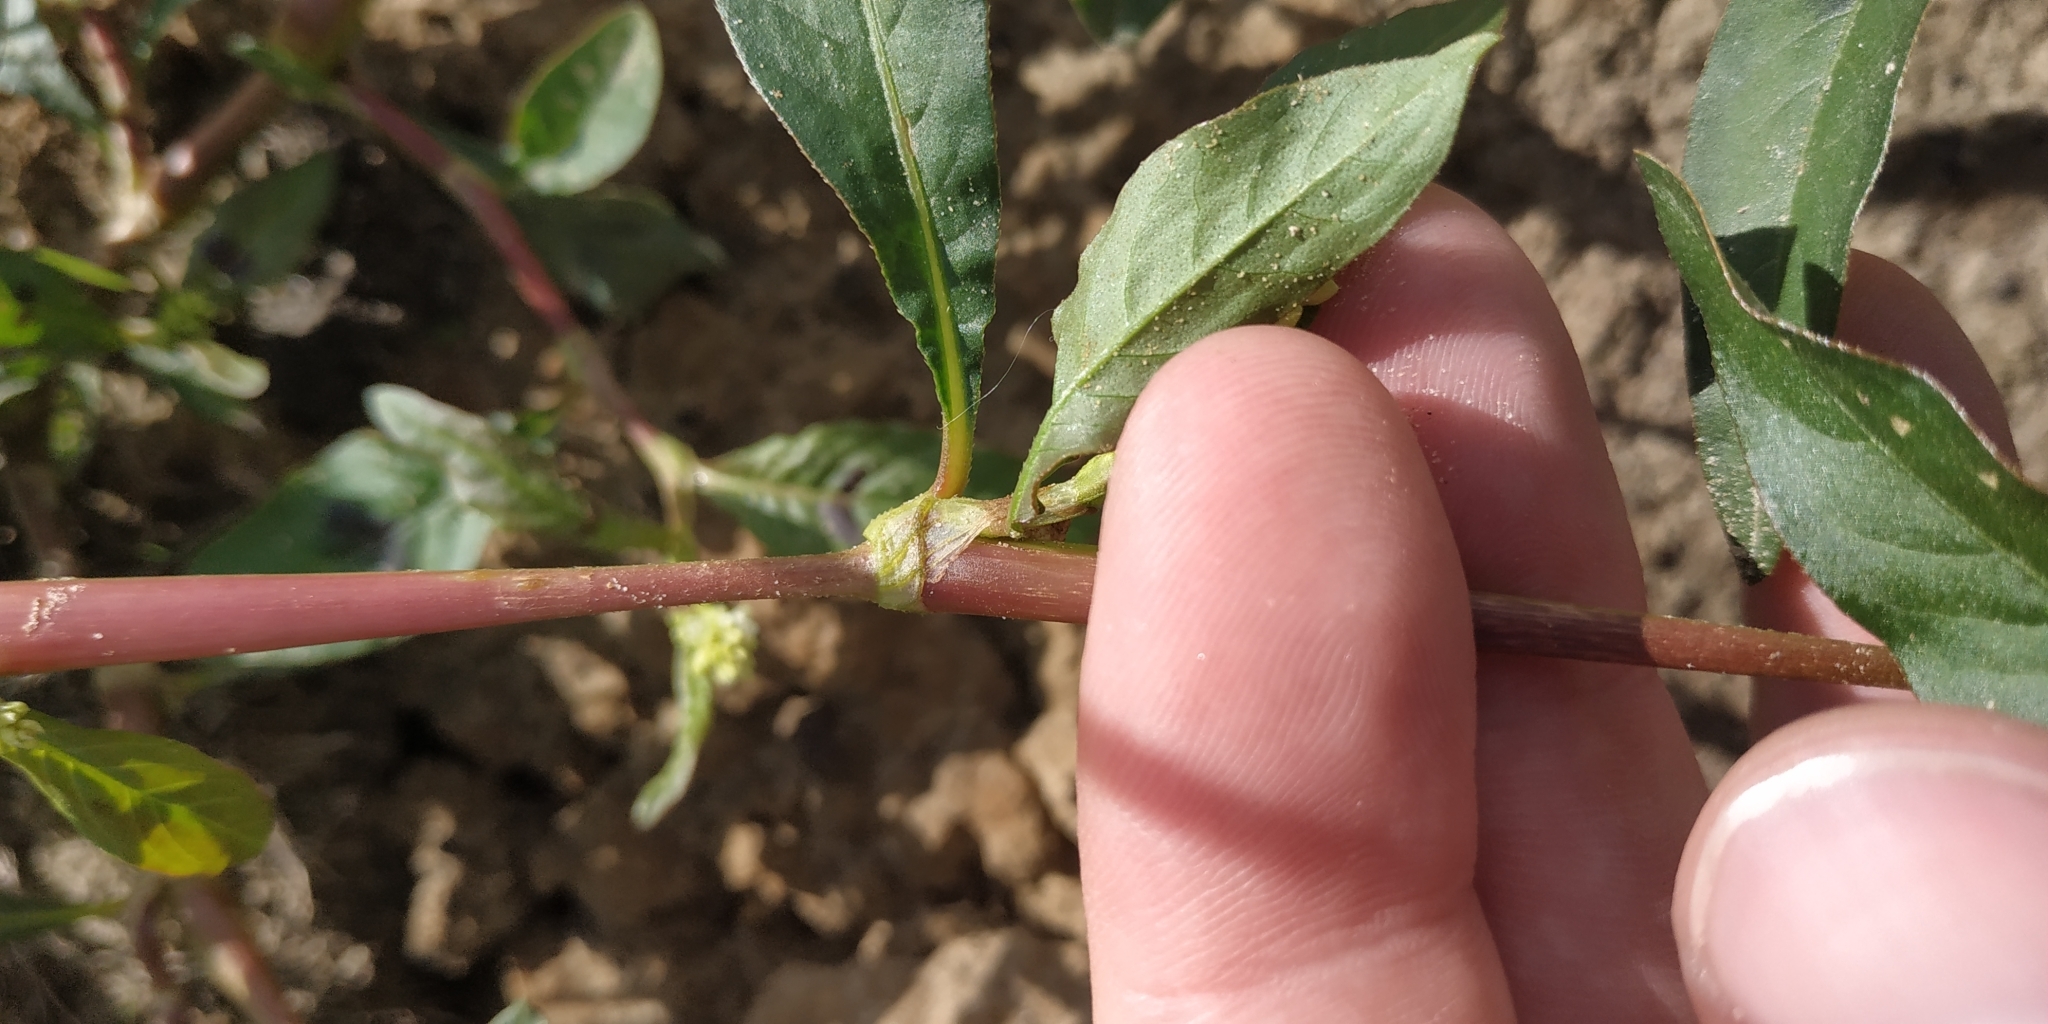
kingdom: Plantae
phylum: Tracheophyta
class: Magnoliopsida
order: Caryophyllales
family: Polygonaceae
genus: Persicaria
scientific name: Persicaria lapathifolia
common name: Curlytop knotweed
